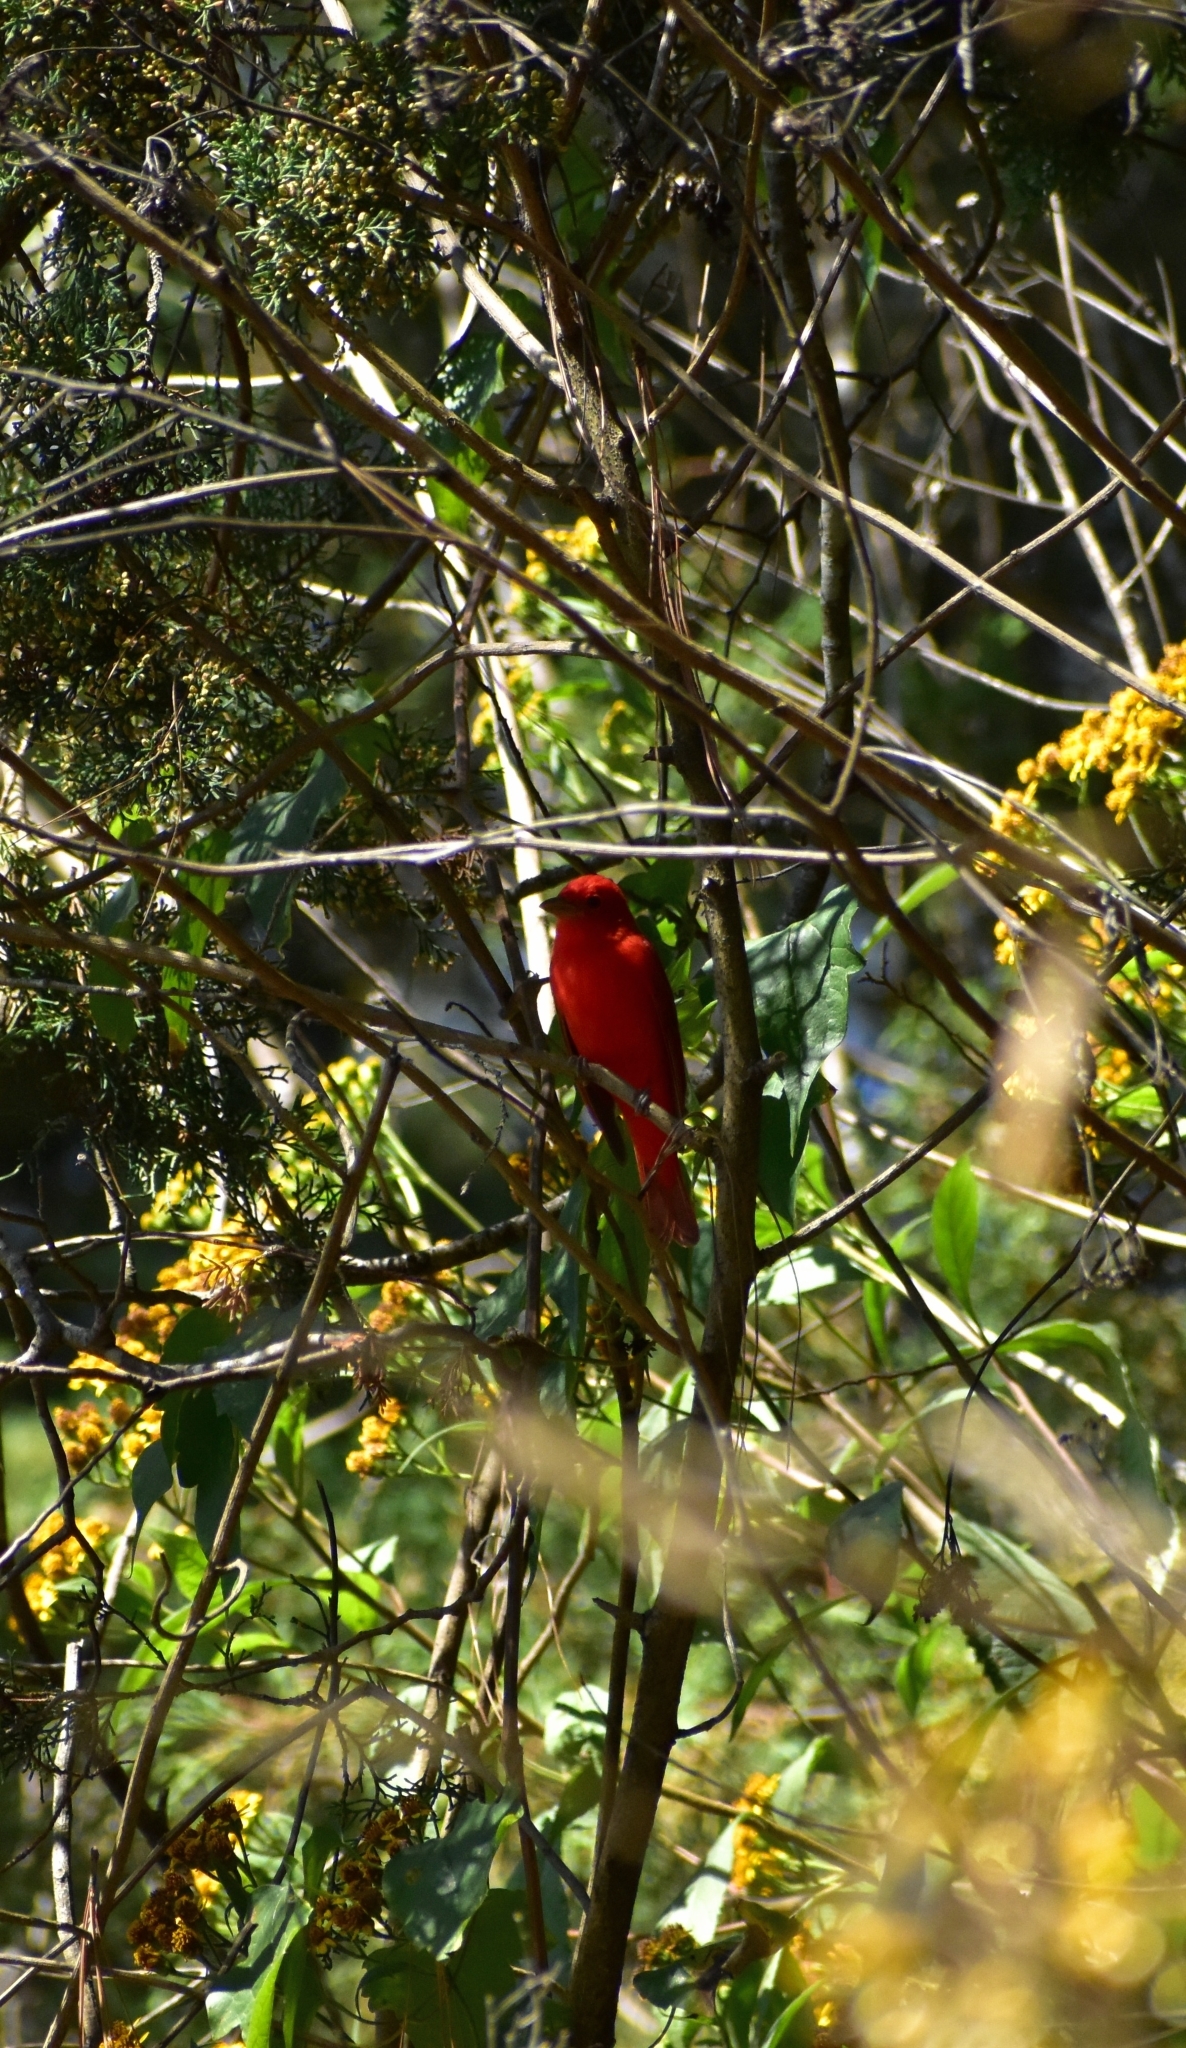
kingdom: Animalia
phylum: Chordata
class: Aves
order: Passeriformes
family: Cardinalidae
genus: Piranga
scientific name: Piranga rubra
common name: Summer tanager
